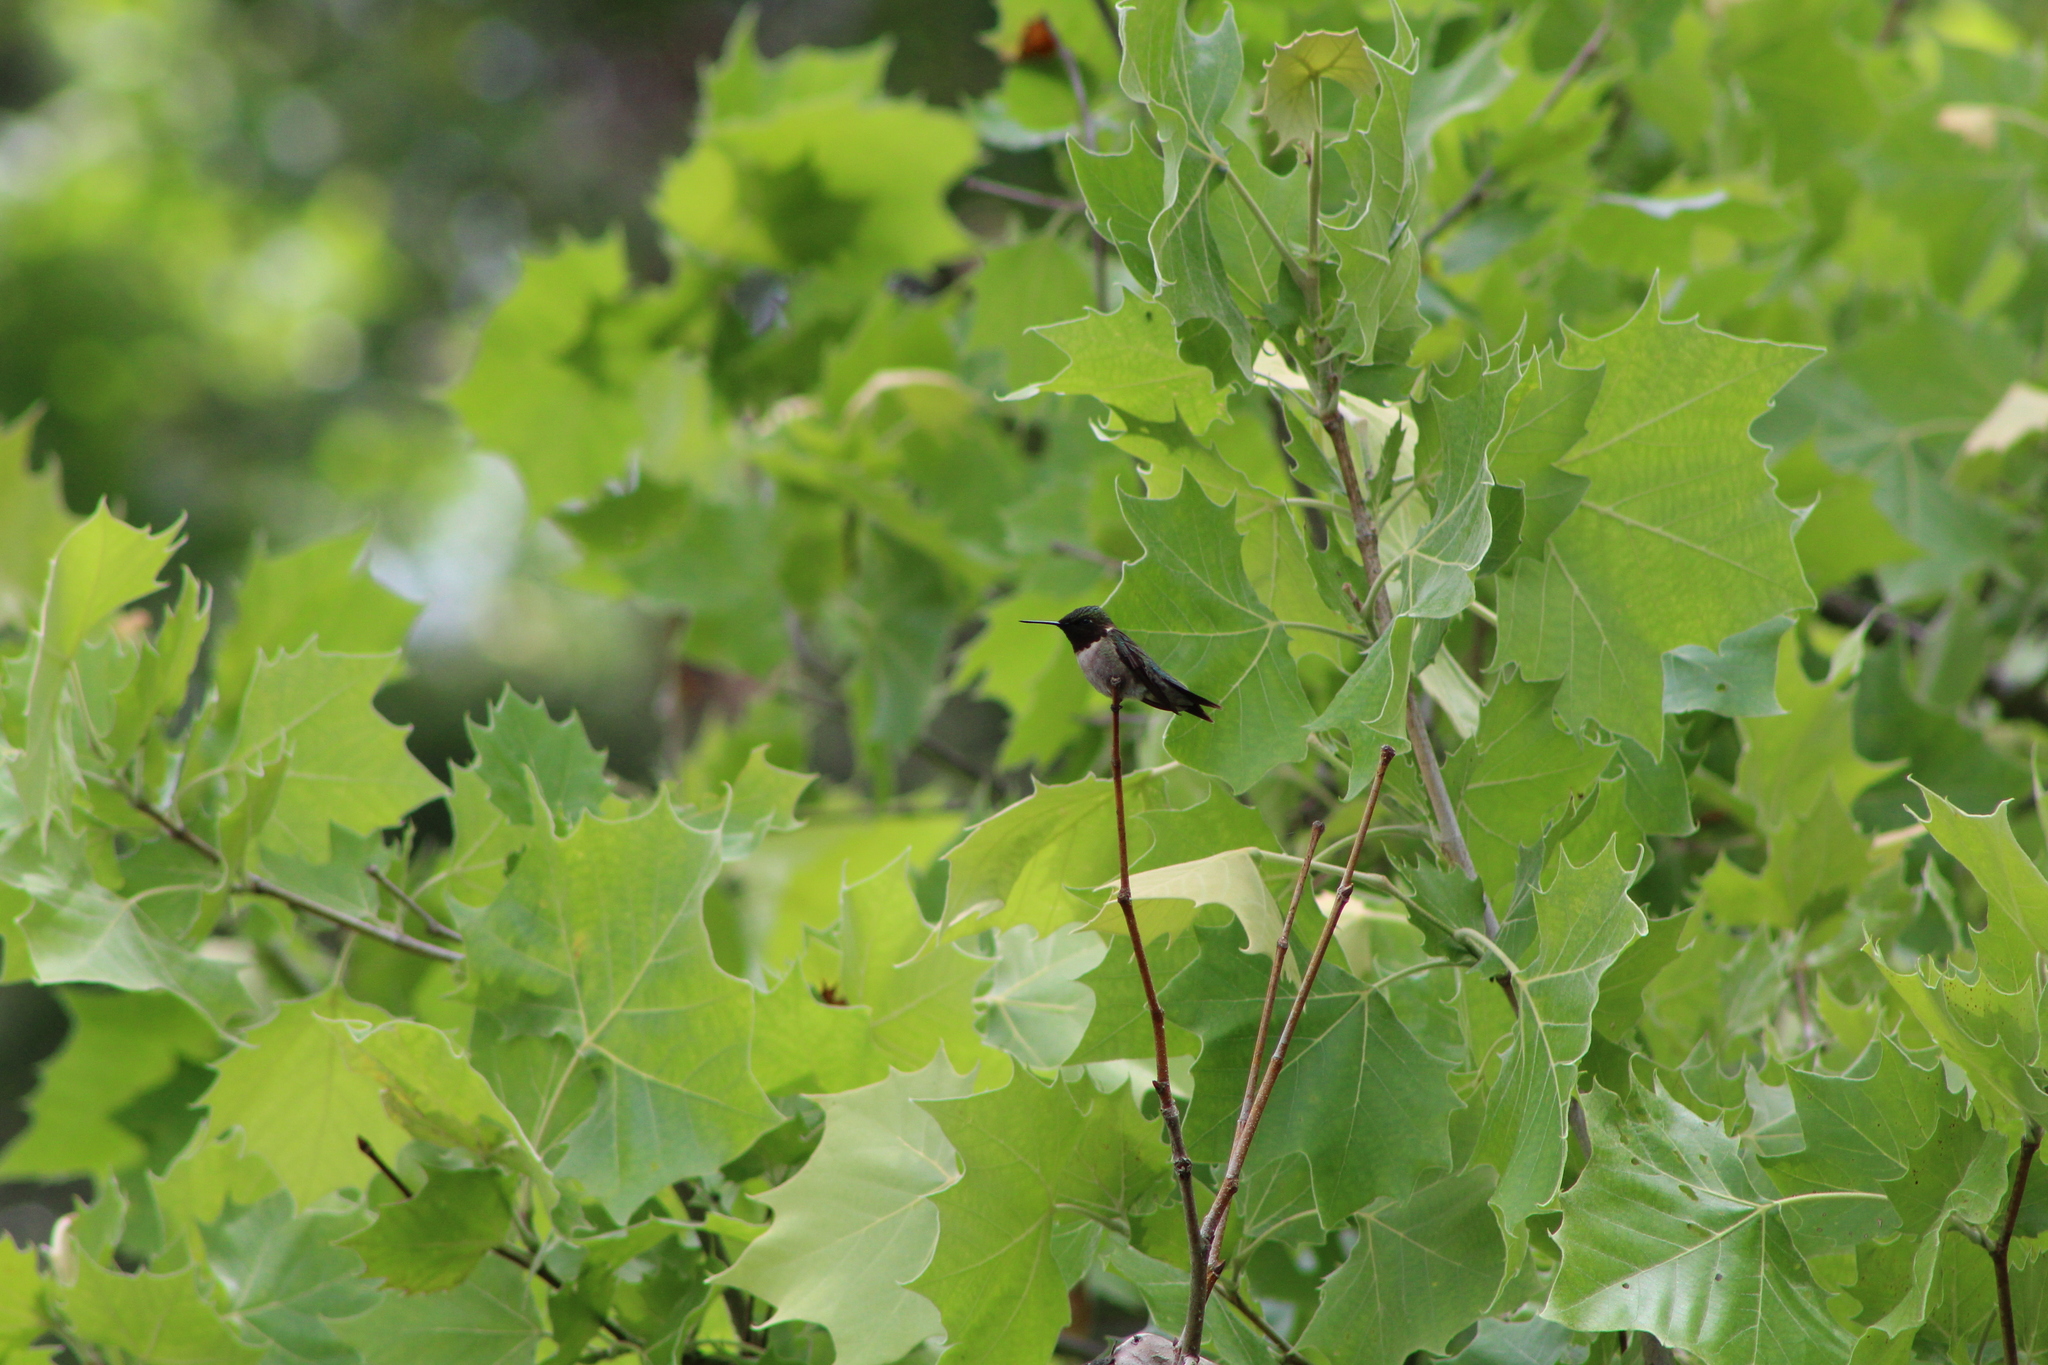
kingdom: Animalia
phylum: Chordata
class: Aves
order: Apodiformes
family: Trochilidae
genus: Archilochus
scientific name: Archilochus colubris
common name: Ruby-throated hummingbird
